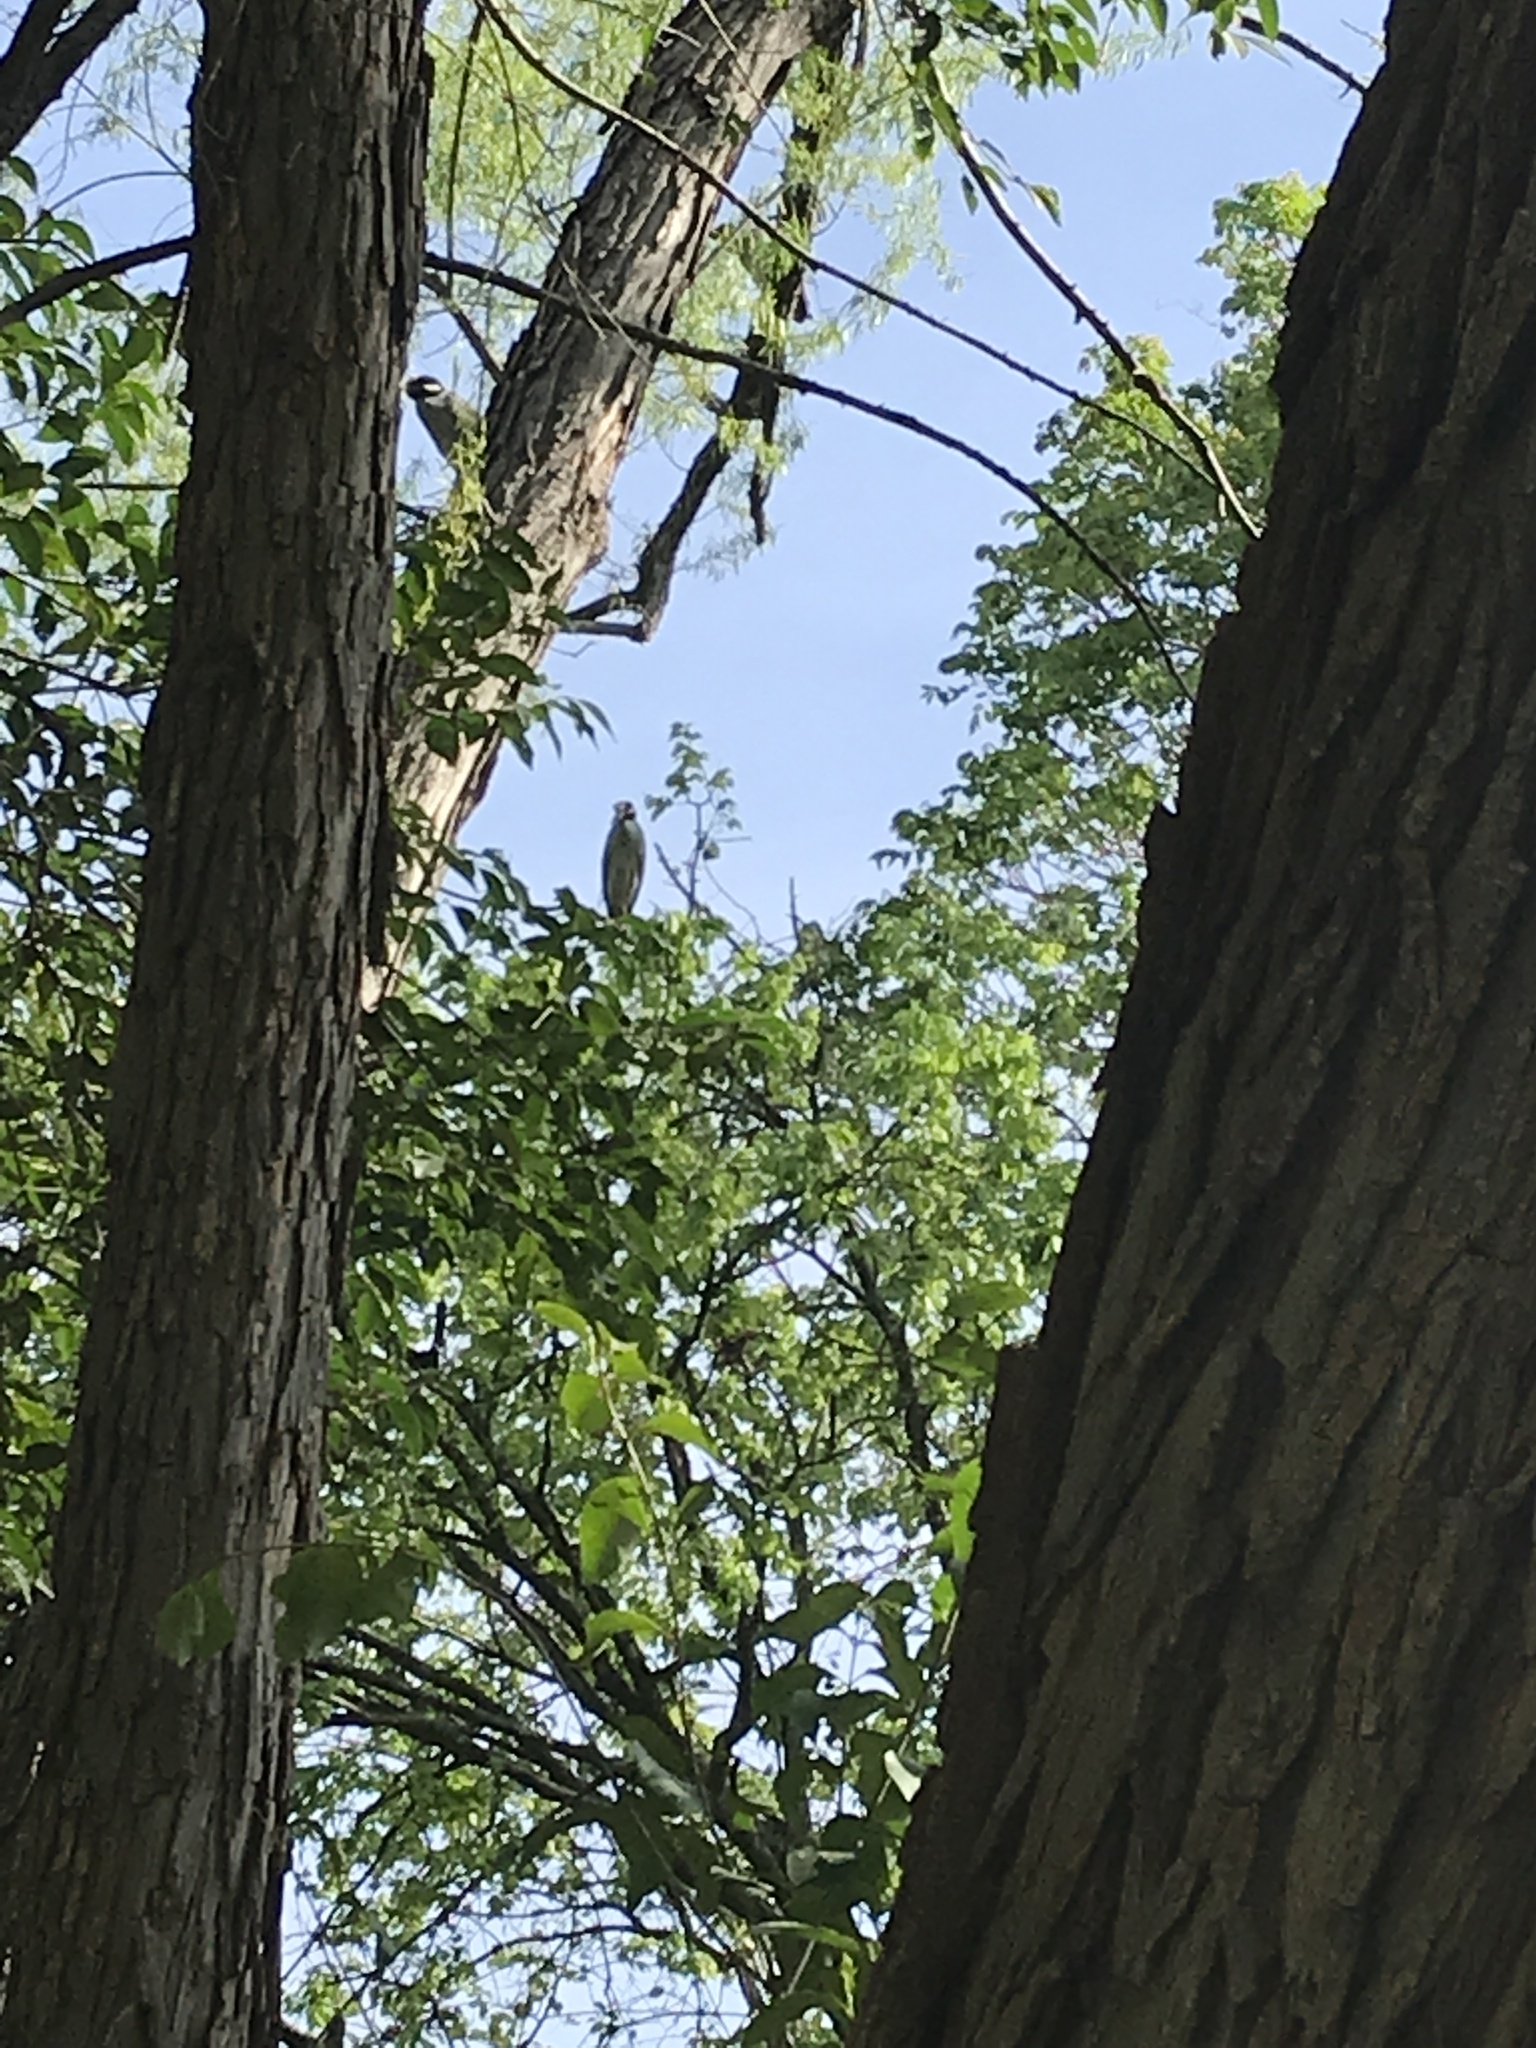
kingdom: Animalia
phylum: Chordata
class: Aves
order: Pelecaniformes
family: Ardeidae
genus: Nyctanassa
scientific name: Nyctanassa violacea
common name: Yellow-crowned night heron
